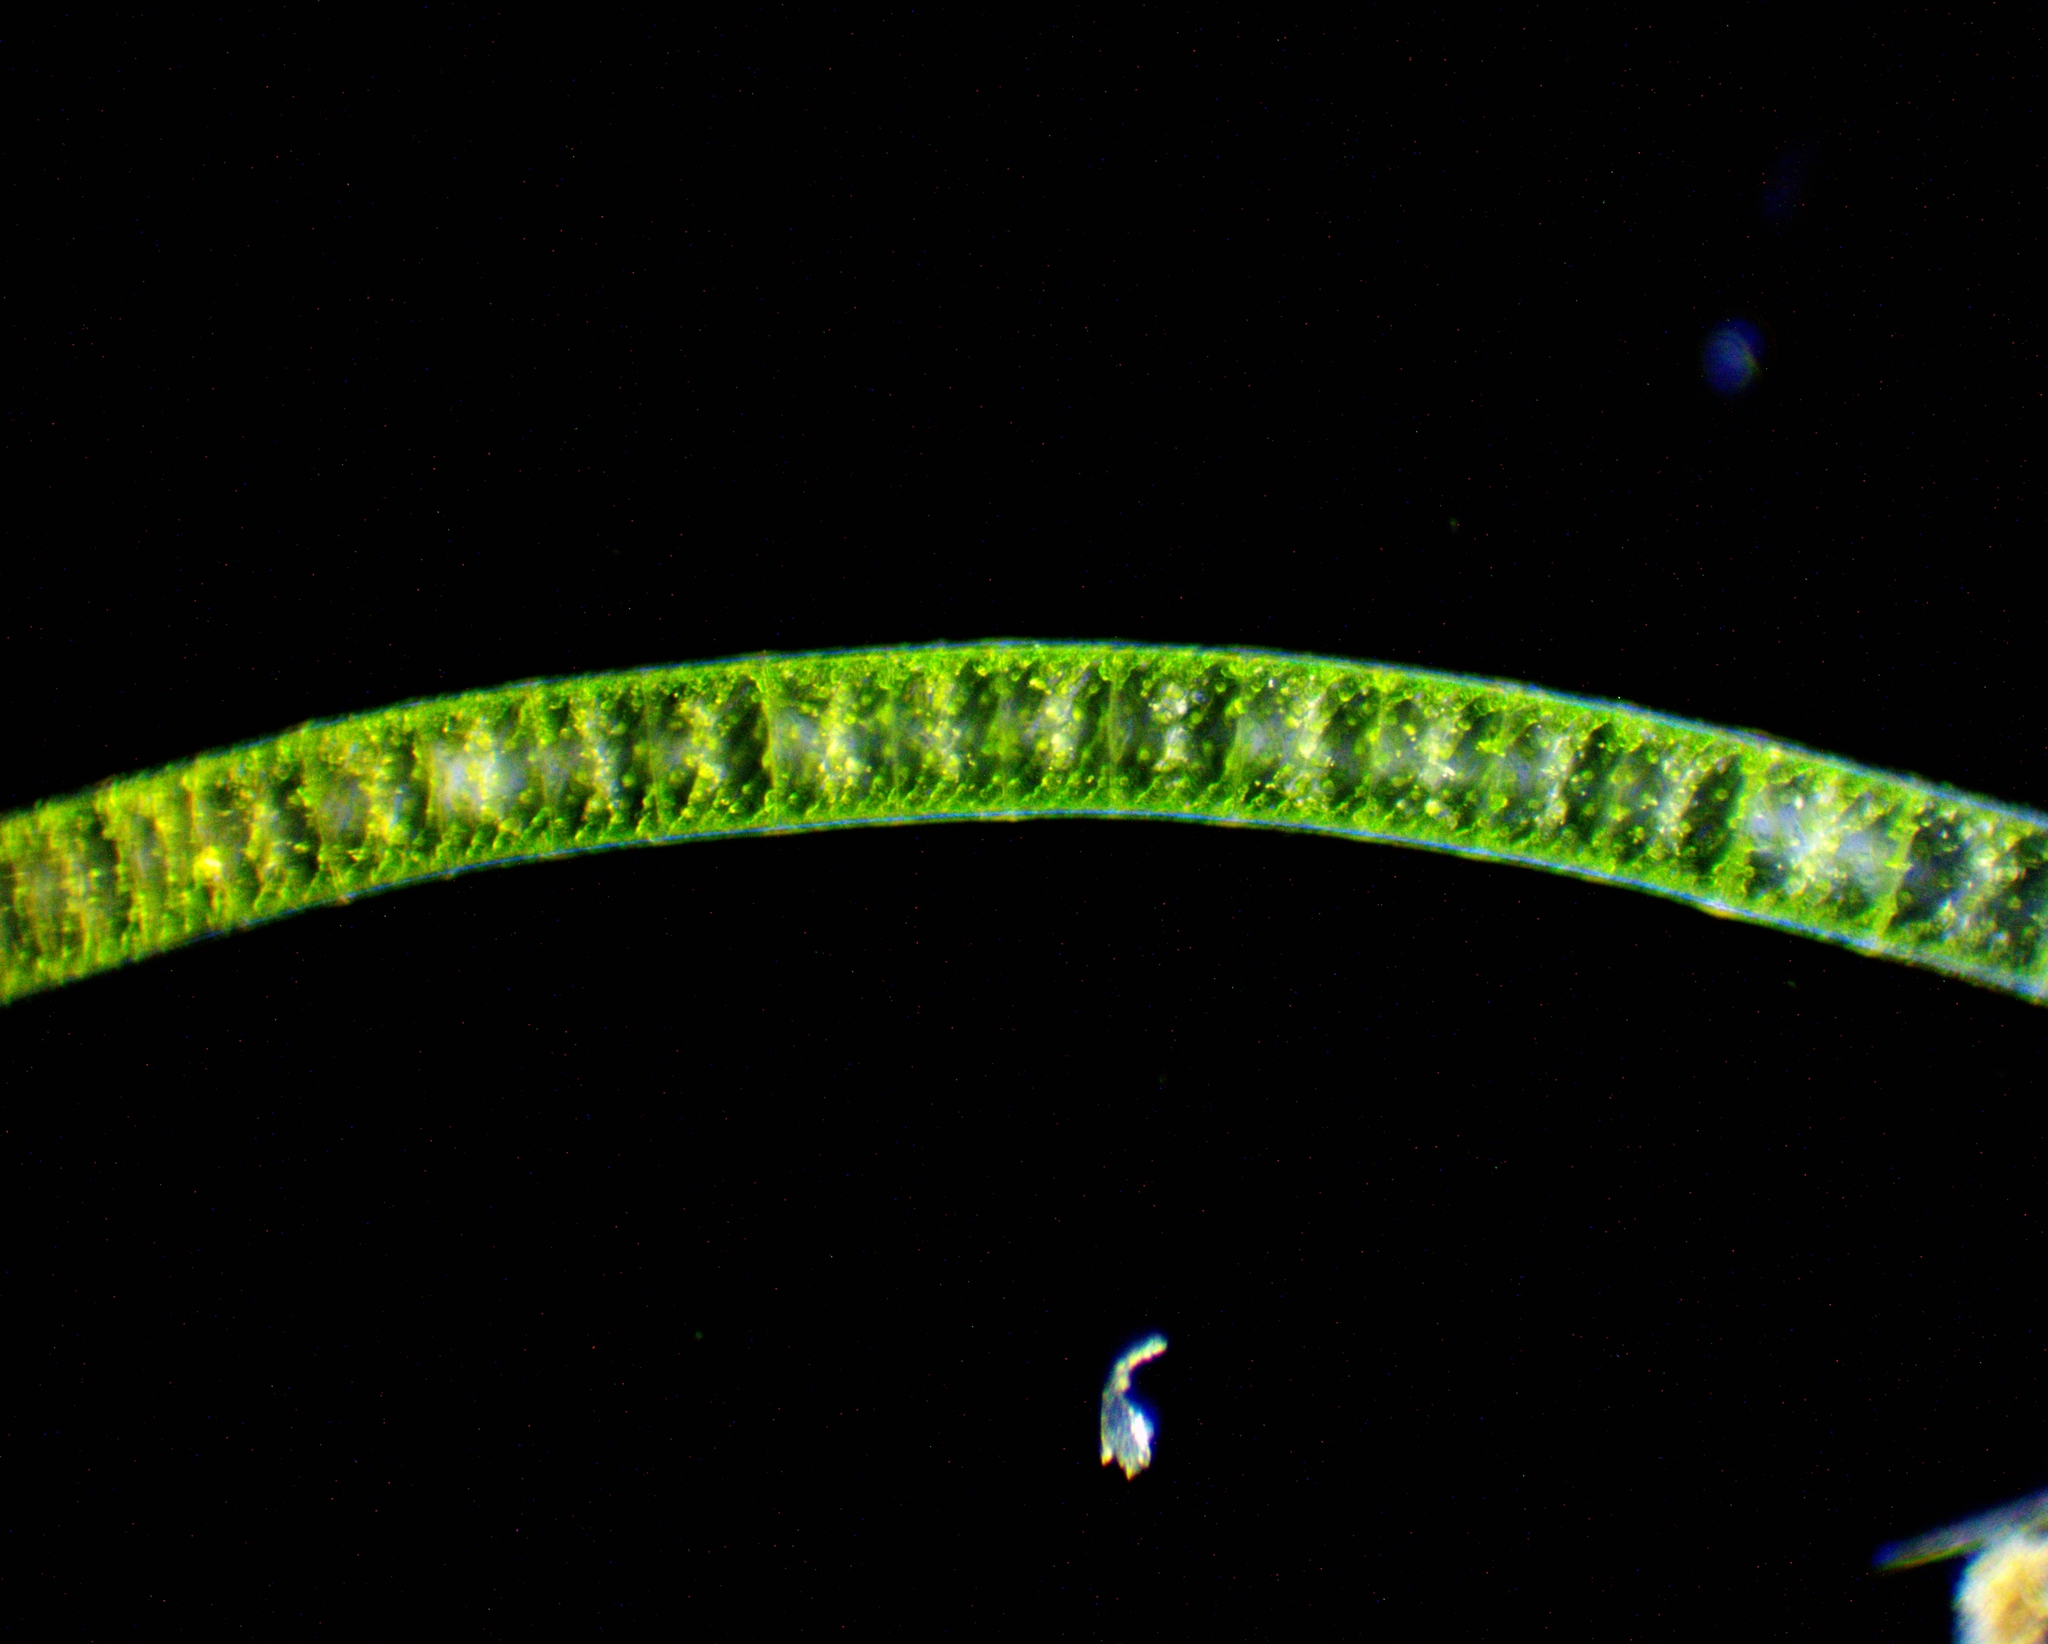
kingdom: Plantae
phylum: Charophyta
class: Zygnematophyceae
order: Zygnematales
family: Zygnemataceae
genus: Spirogyra
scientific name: Spirogyra
